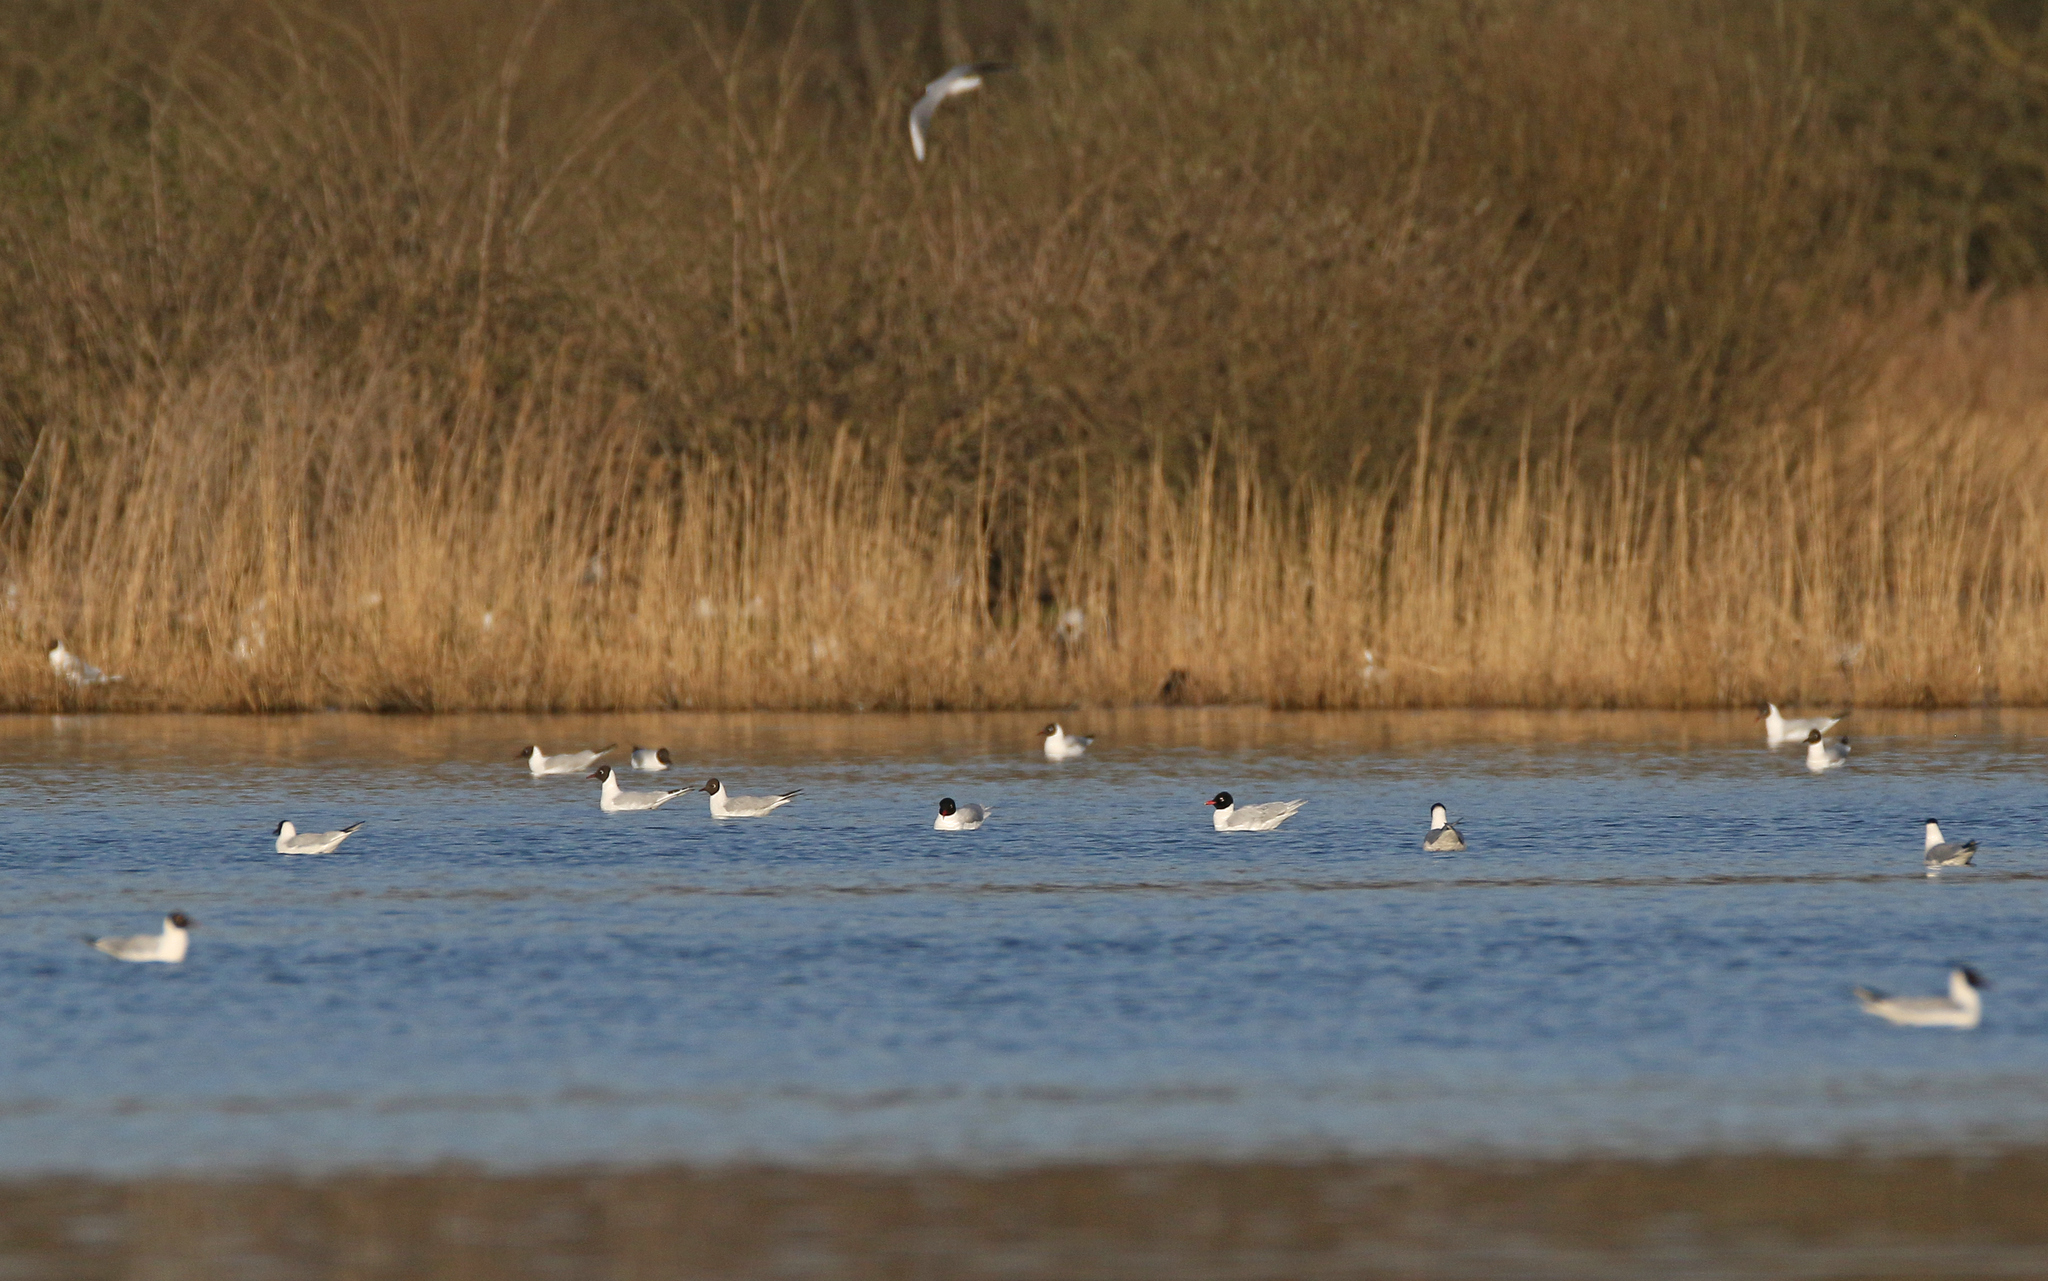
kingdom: Animalia
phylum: Chordata
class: Aves
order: Charadriiformes
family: Laridae
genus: Ichthyaetus
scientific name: Ichthyaetus melanocephalus
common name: Mediterranean gull
